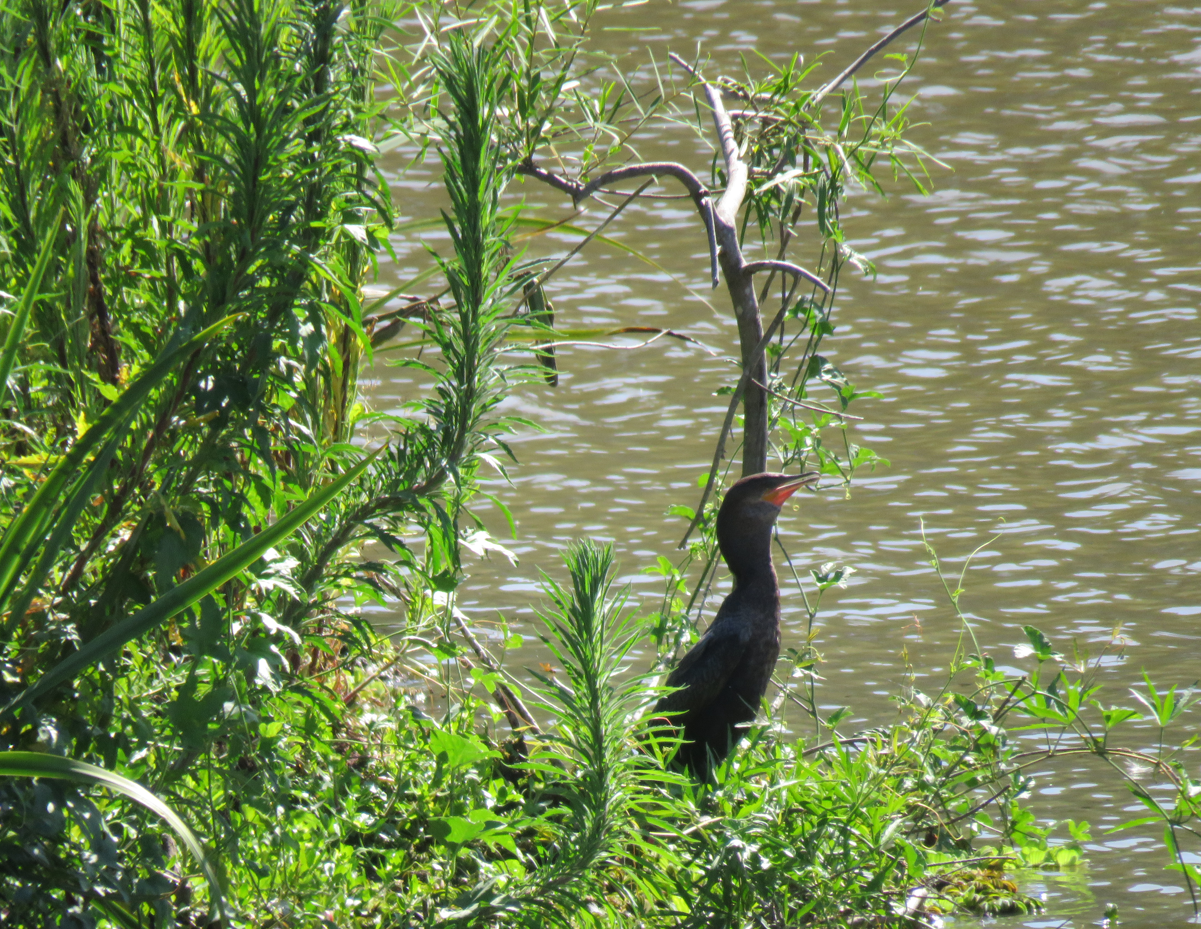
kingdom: Animalia
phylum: Chordata
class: Aves
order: Suliformes
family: Phalacrocoracidae
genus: Phalacrocorax
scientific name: Phalacrocorax brasilianus
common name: Neotropic cormorant
